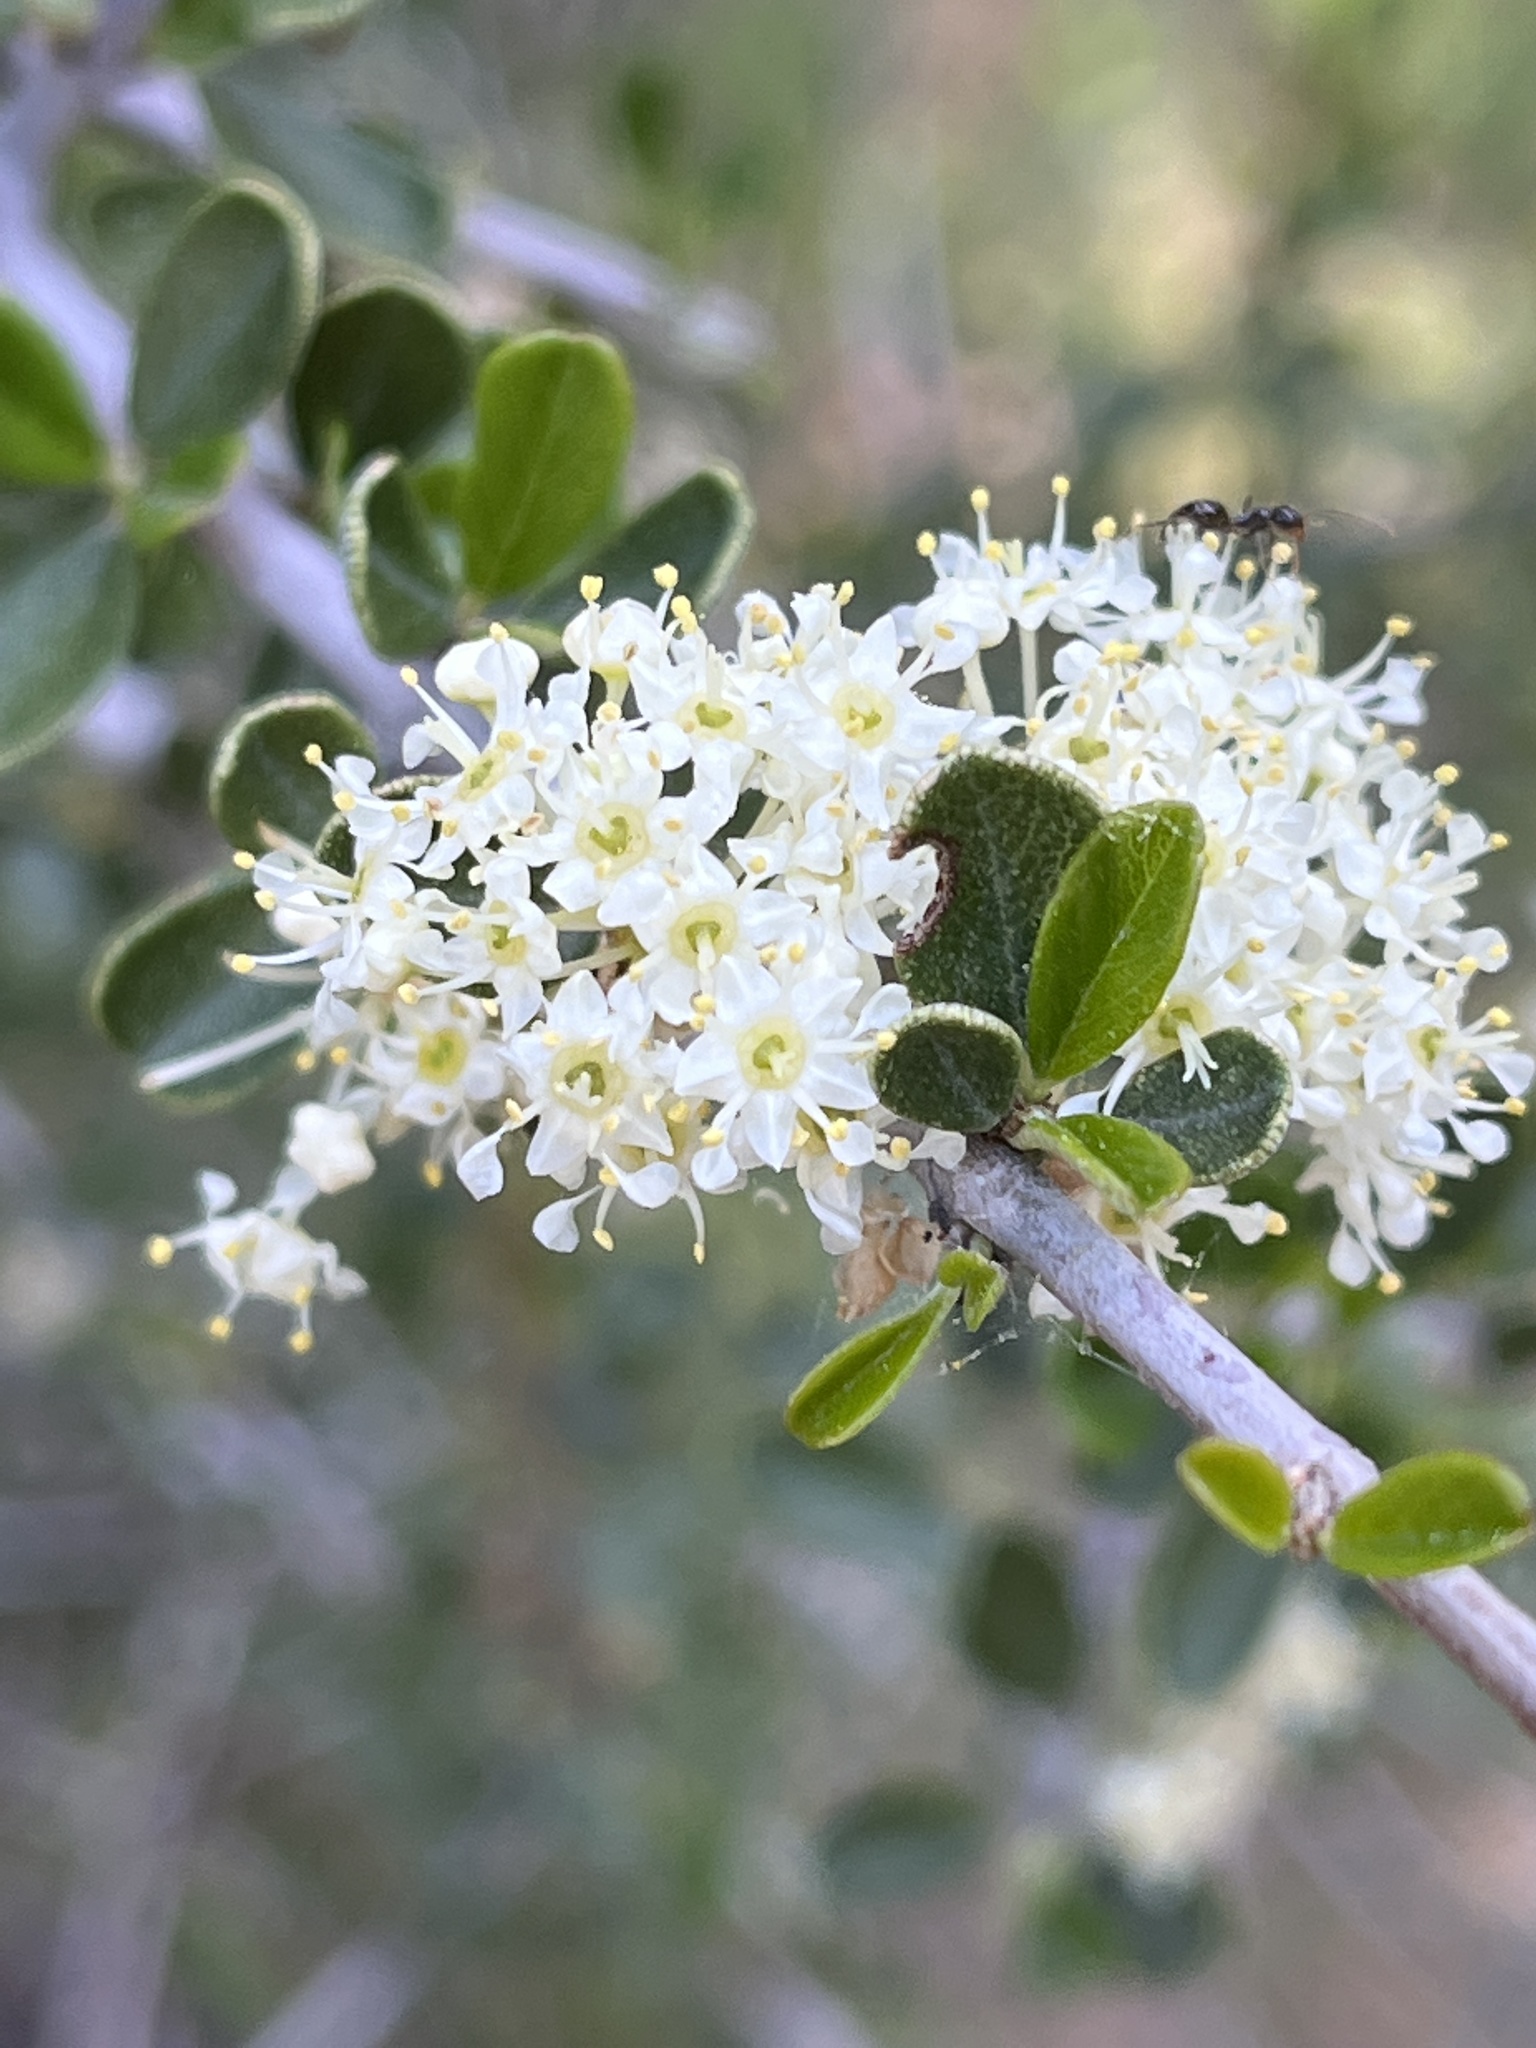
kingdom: Plantae
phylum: Tracheophyta
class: Magnoliopsida
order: Rosales
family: Rhamnaceae
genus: Ceanothus
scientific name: Ceanothus cuneatus
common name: Cuneate ceanothus
